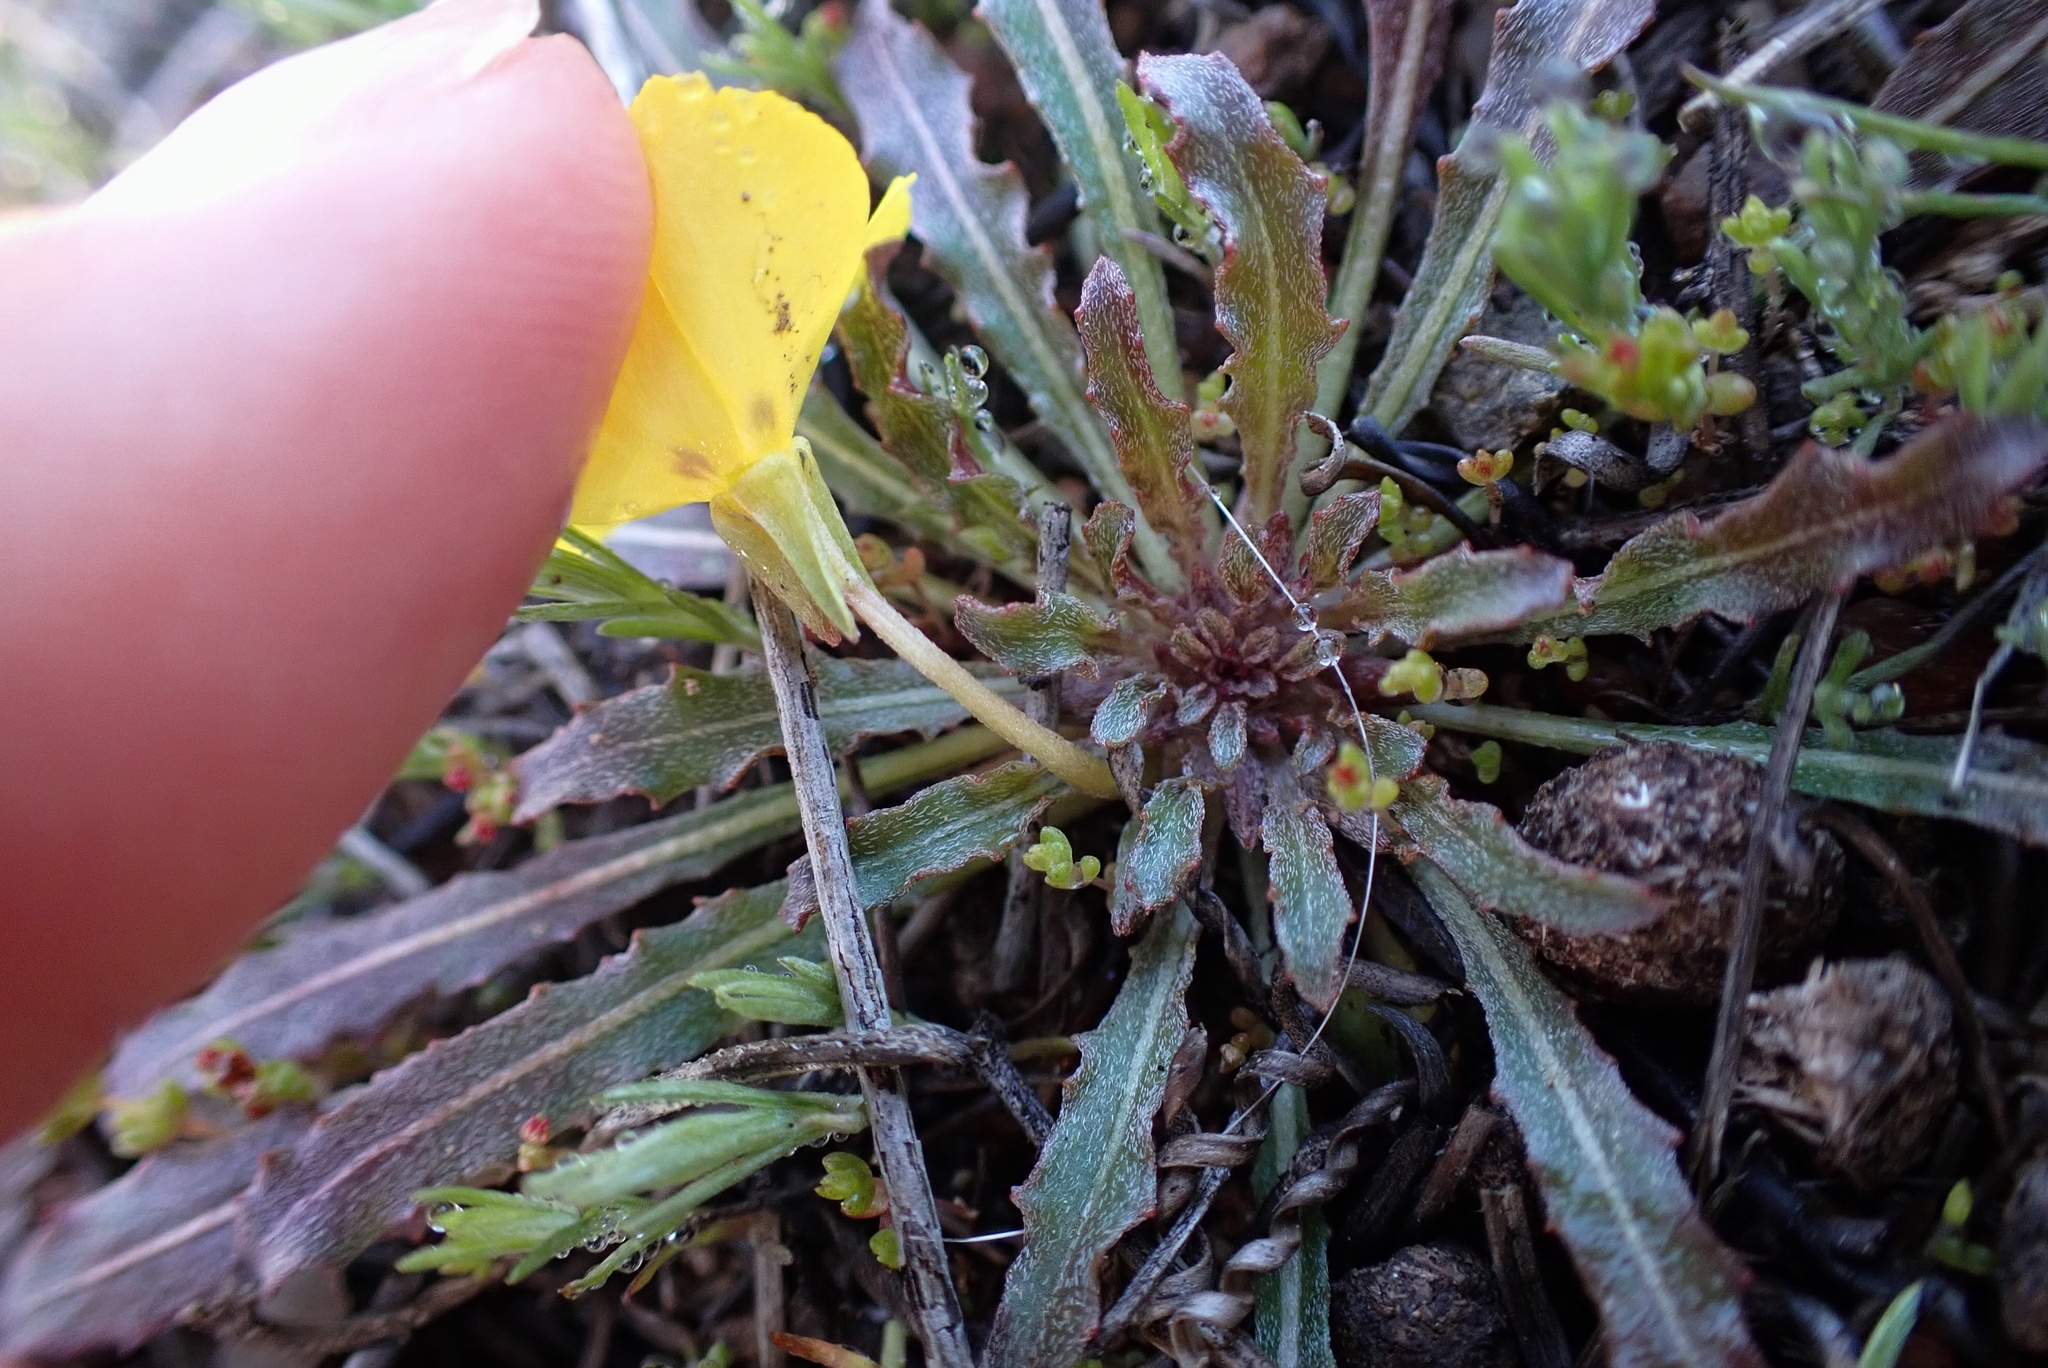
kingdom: Plantae
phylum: Tracheophyta
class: Magnoliopsida
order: Myrtales
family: Onagraceae
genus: Camissoniopsis
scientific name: Camissoniopsis bistorta
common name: Southern suncup
